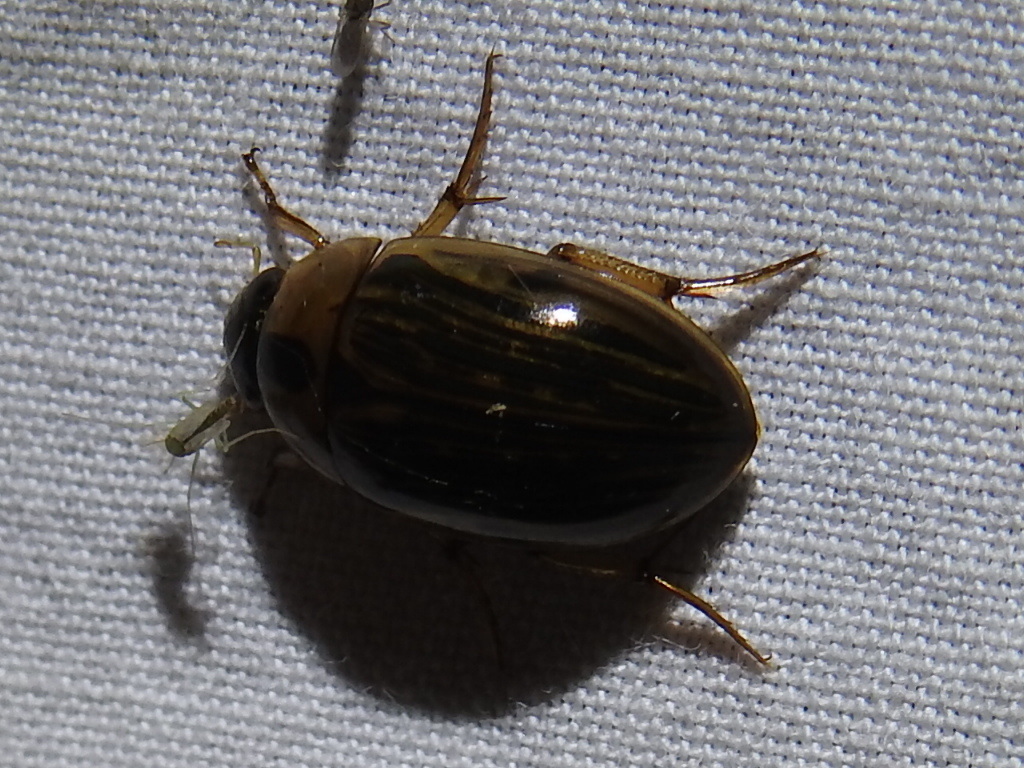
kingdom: Animalia
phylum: Arthropoda
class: Insecta
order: Coleoptera
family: Hydrophilidae
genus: Tropisternus
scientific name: Tropisternus collaris
